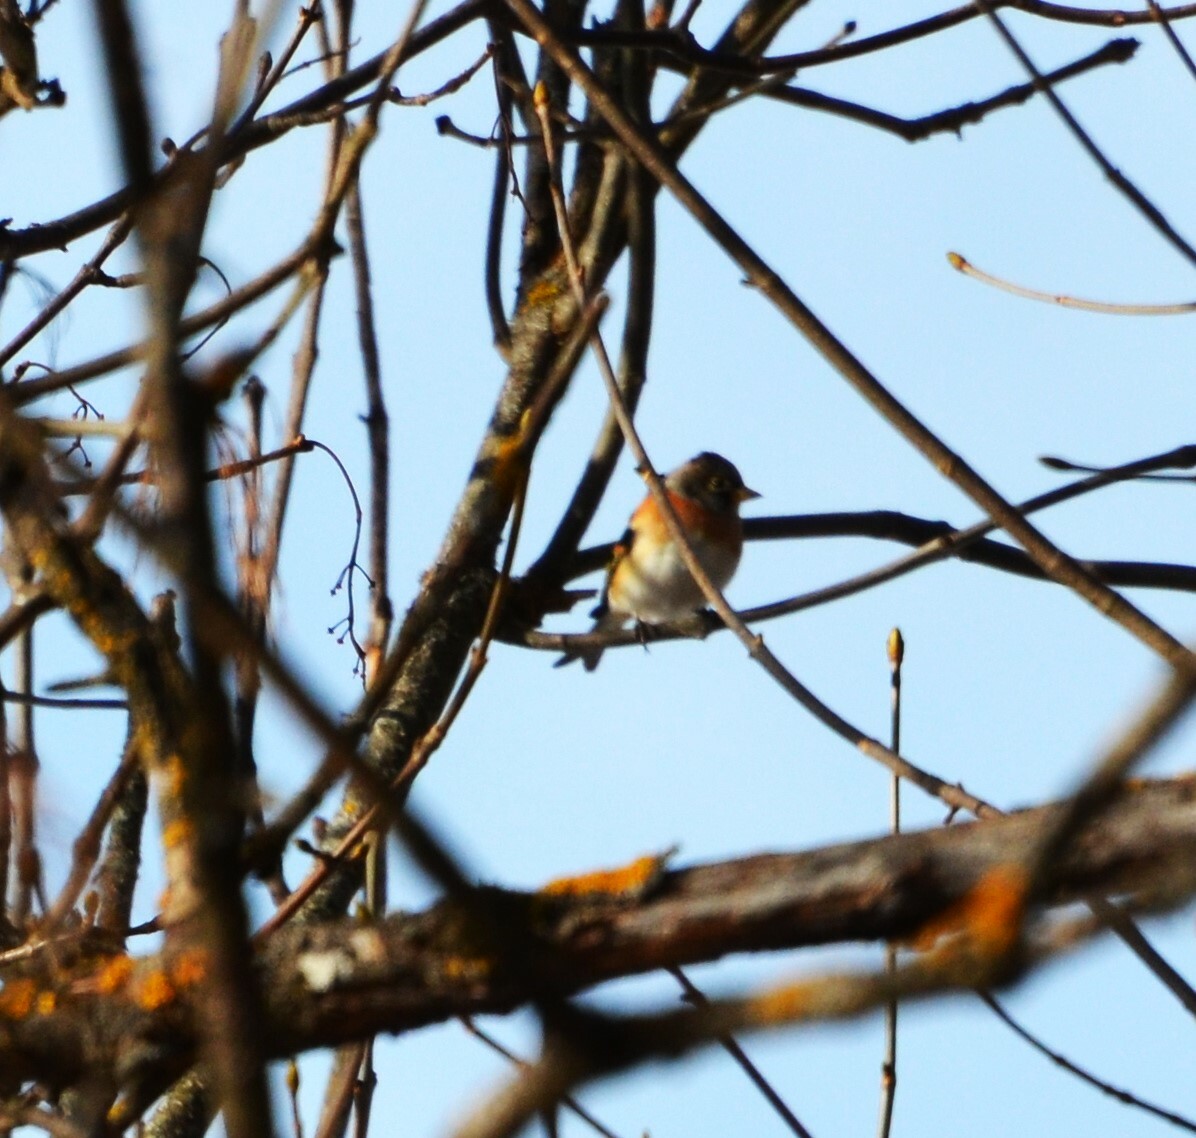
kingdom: Animalia
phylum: Chordata
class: Aves
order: Passeriformes
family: Fringillidae
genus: Fringilla
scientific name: Fringilla montifringilla
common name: Brambling
